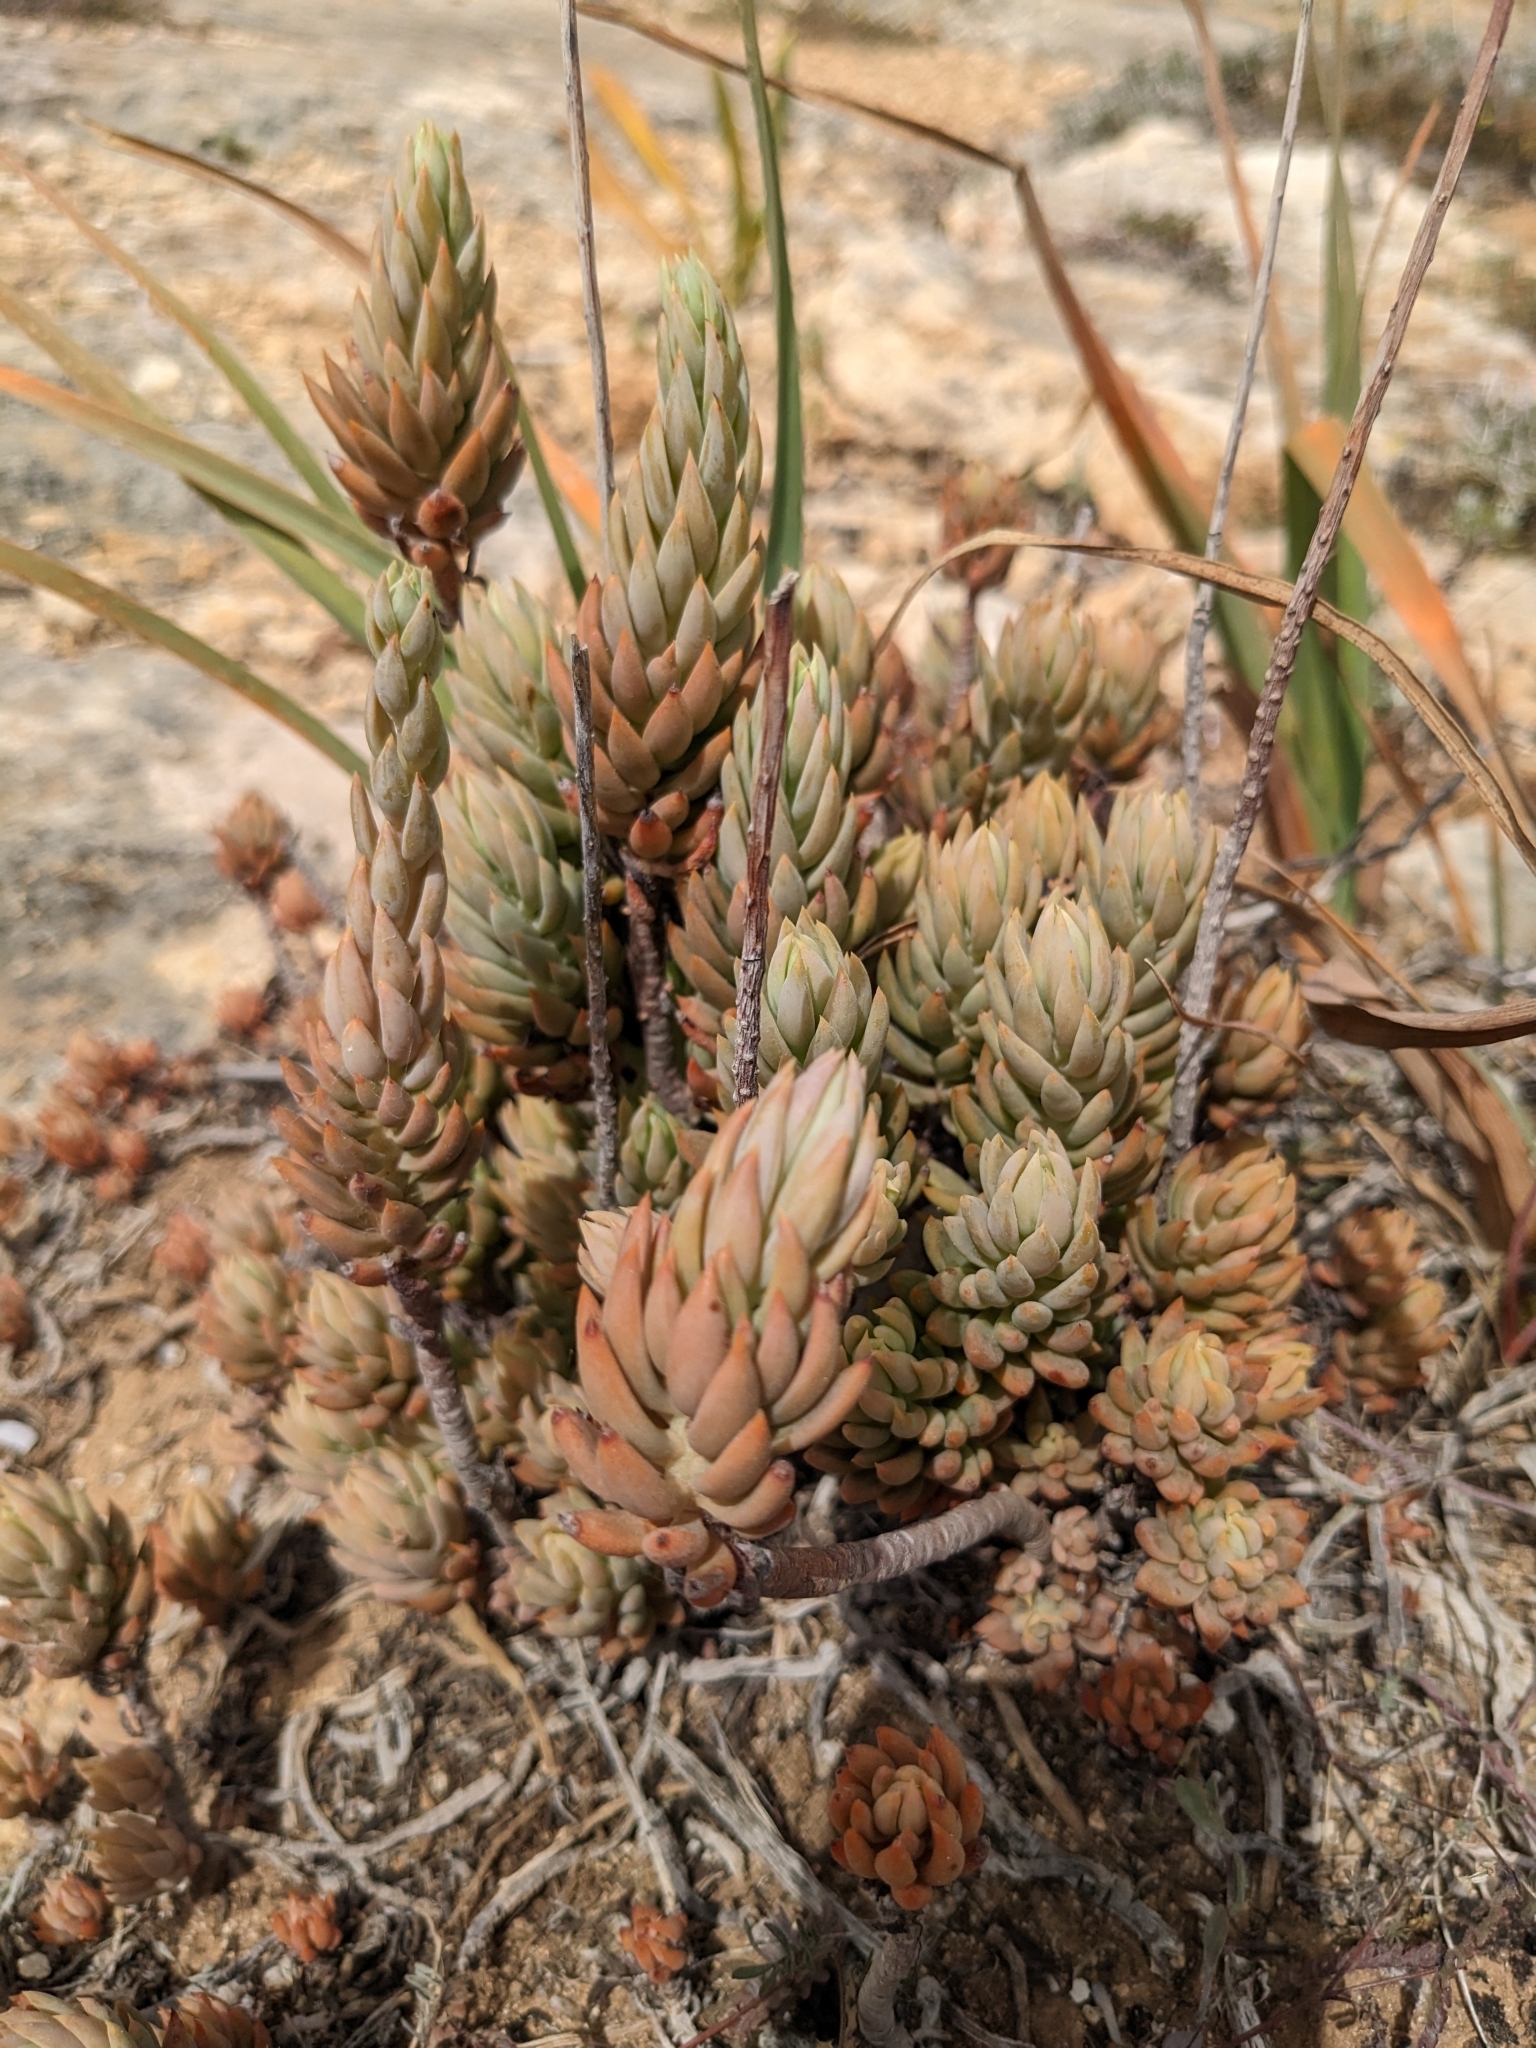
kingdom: Plantae
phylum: Tracheophyta
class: Magnoliopsida
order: Saxifragales
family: Crassulaceae
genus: Petrosedum
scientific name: Petrosedum sediforme
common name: Pale stonecrop
